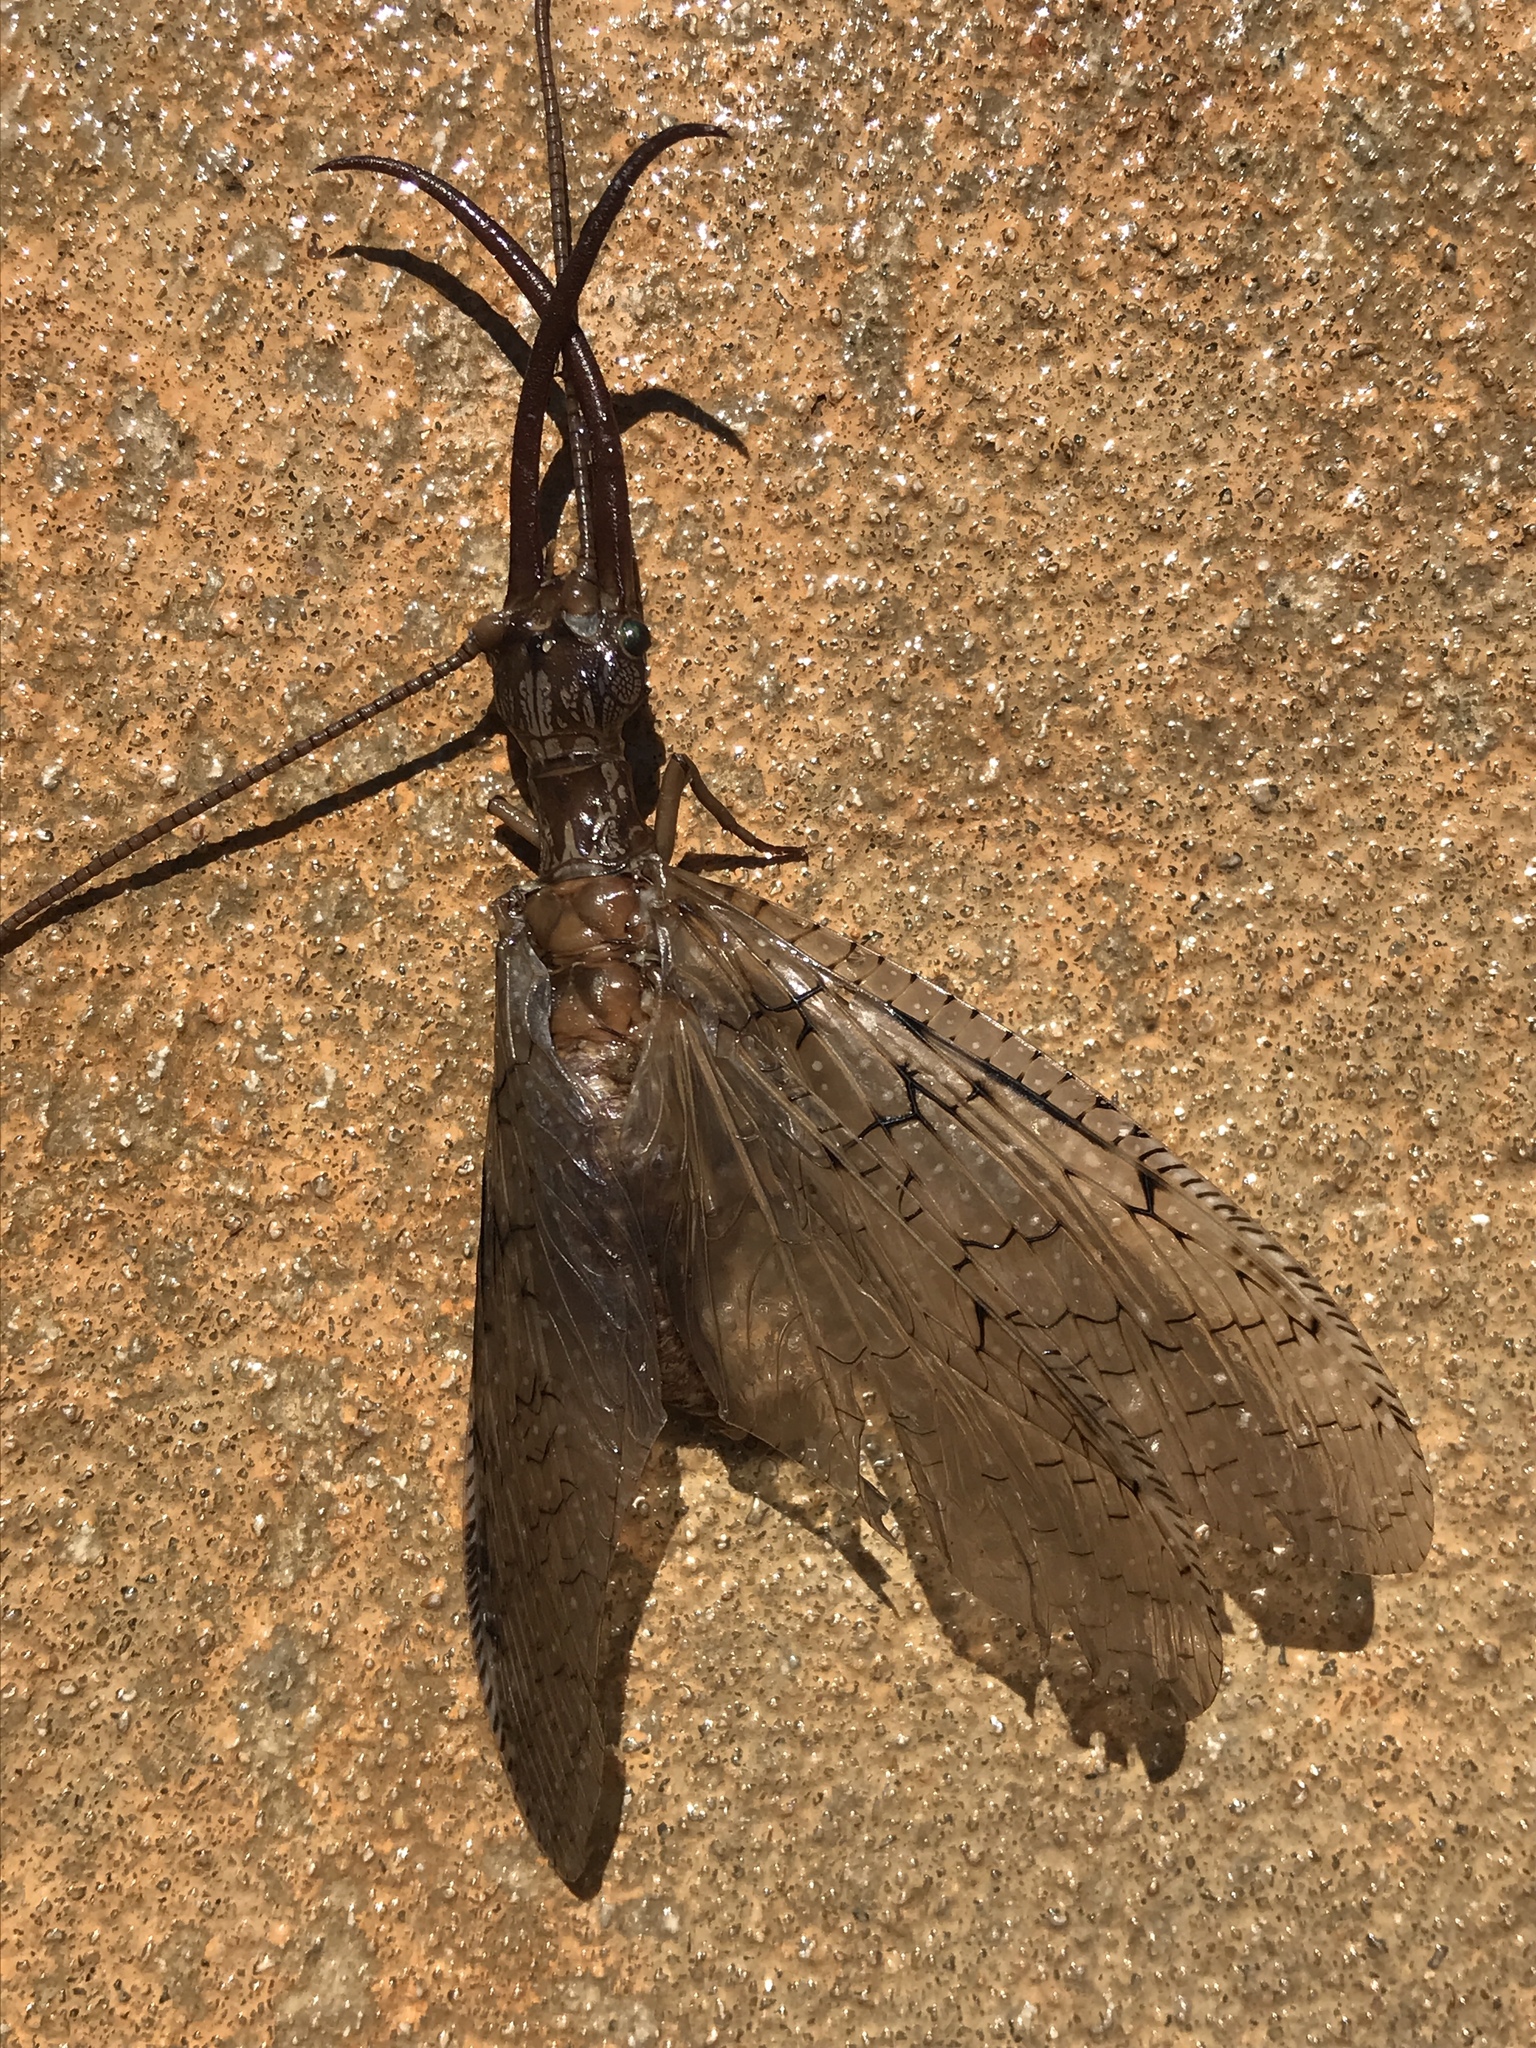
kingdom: Animalia
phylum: Arthropoda
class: Insecta
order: Megaloptera
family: Corydalidae
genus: Corydalus
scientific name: Corydalus cornutus
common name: Dobsonfly
